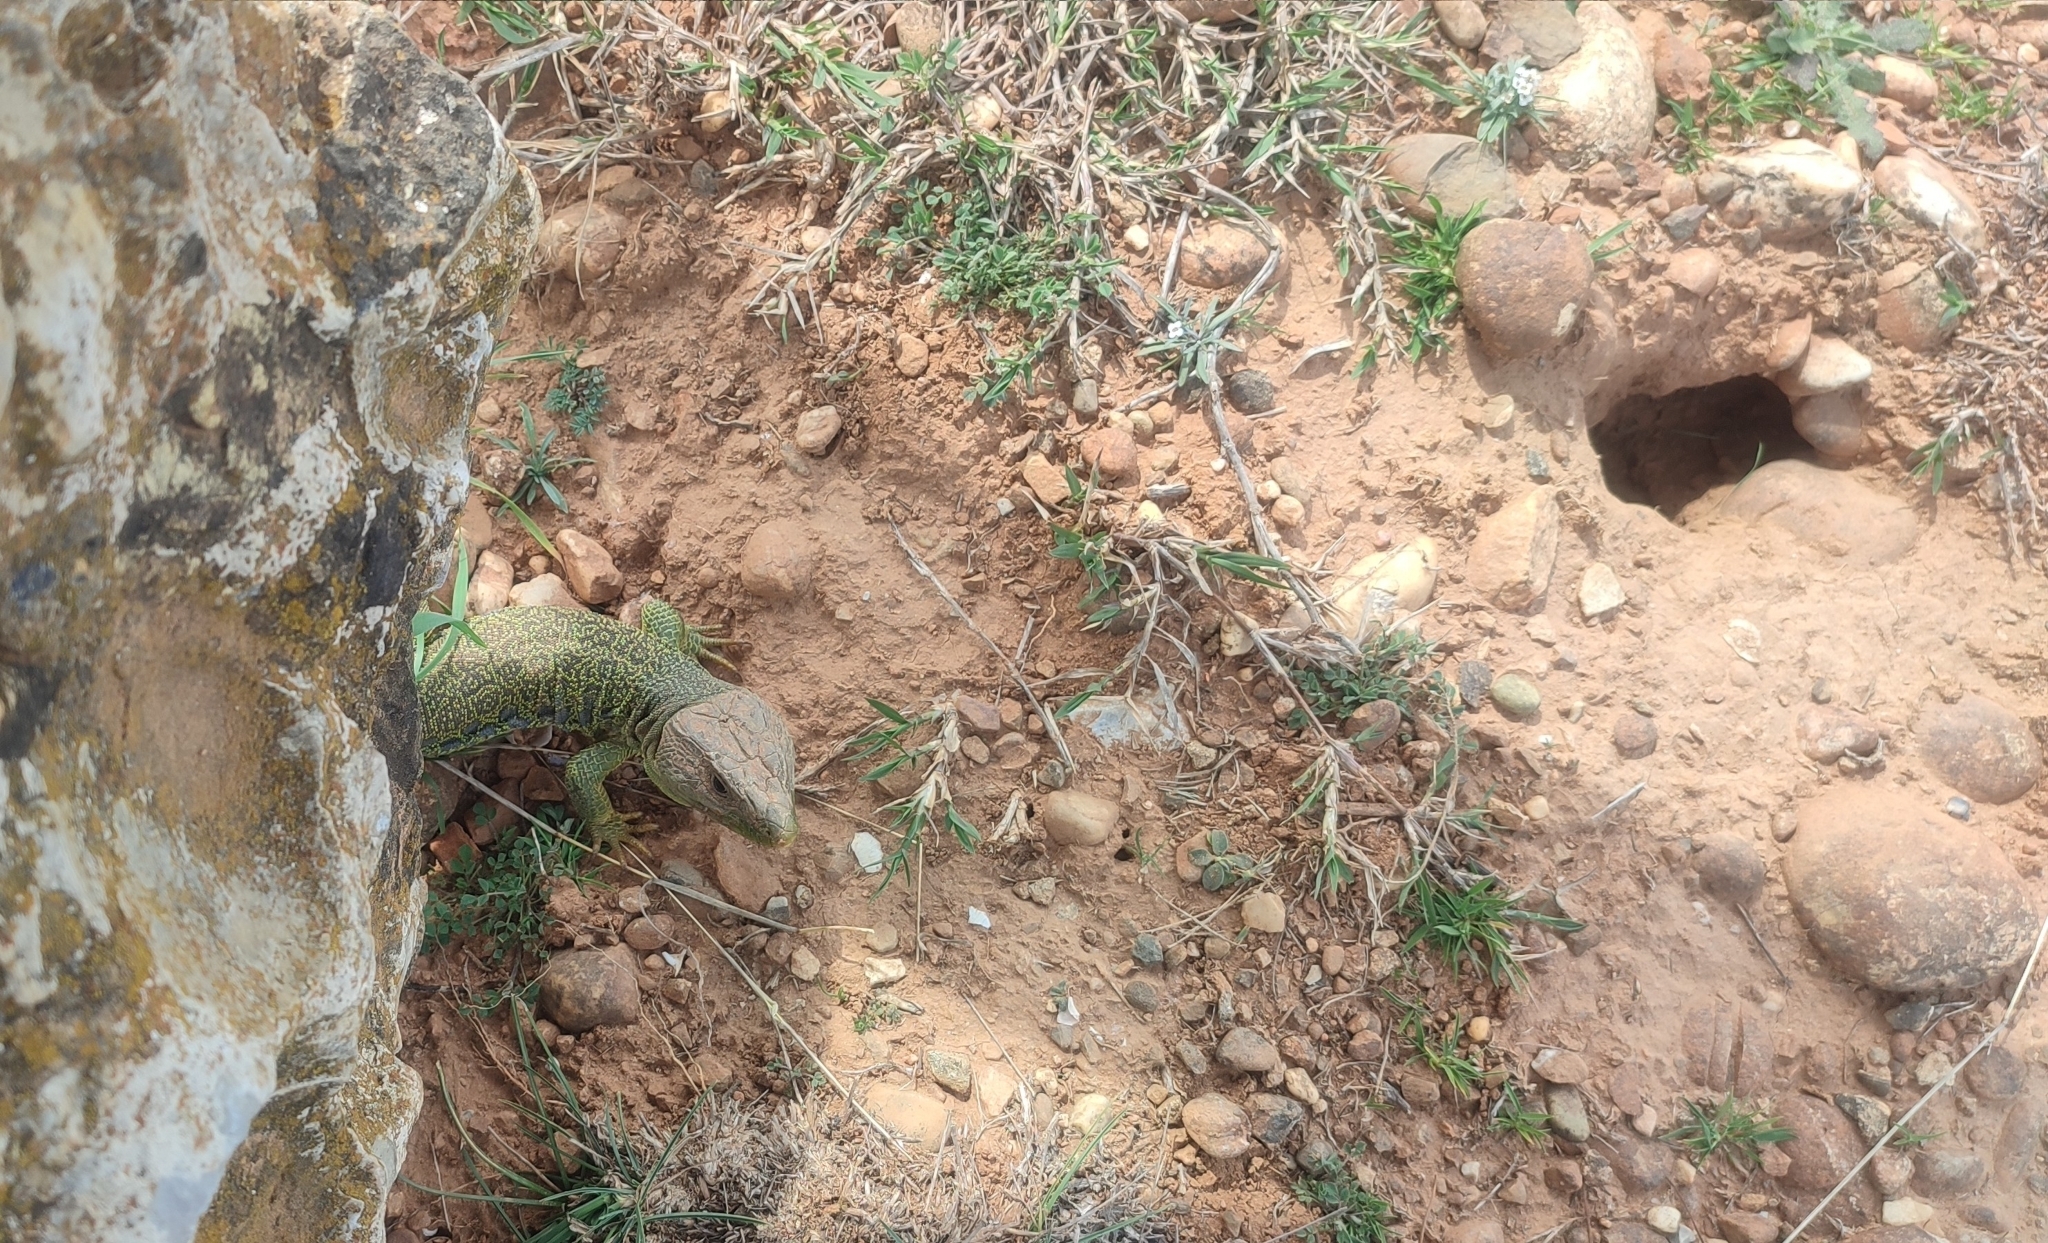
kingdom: Animalia
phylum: Chordata
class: Squamata
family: Lacertidae
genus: Timon
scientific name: Timon lepidus
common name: Ocellated lizard
